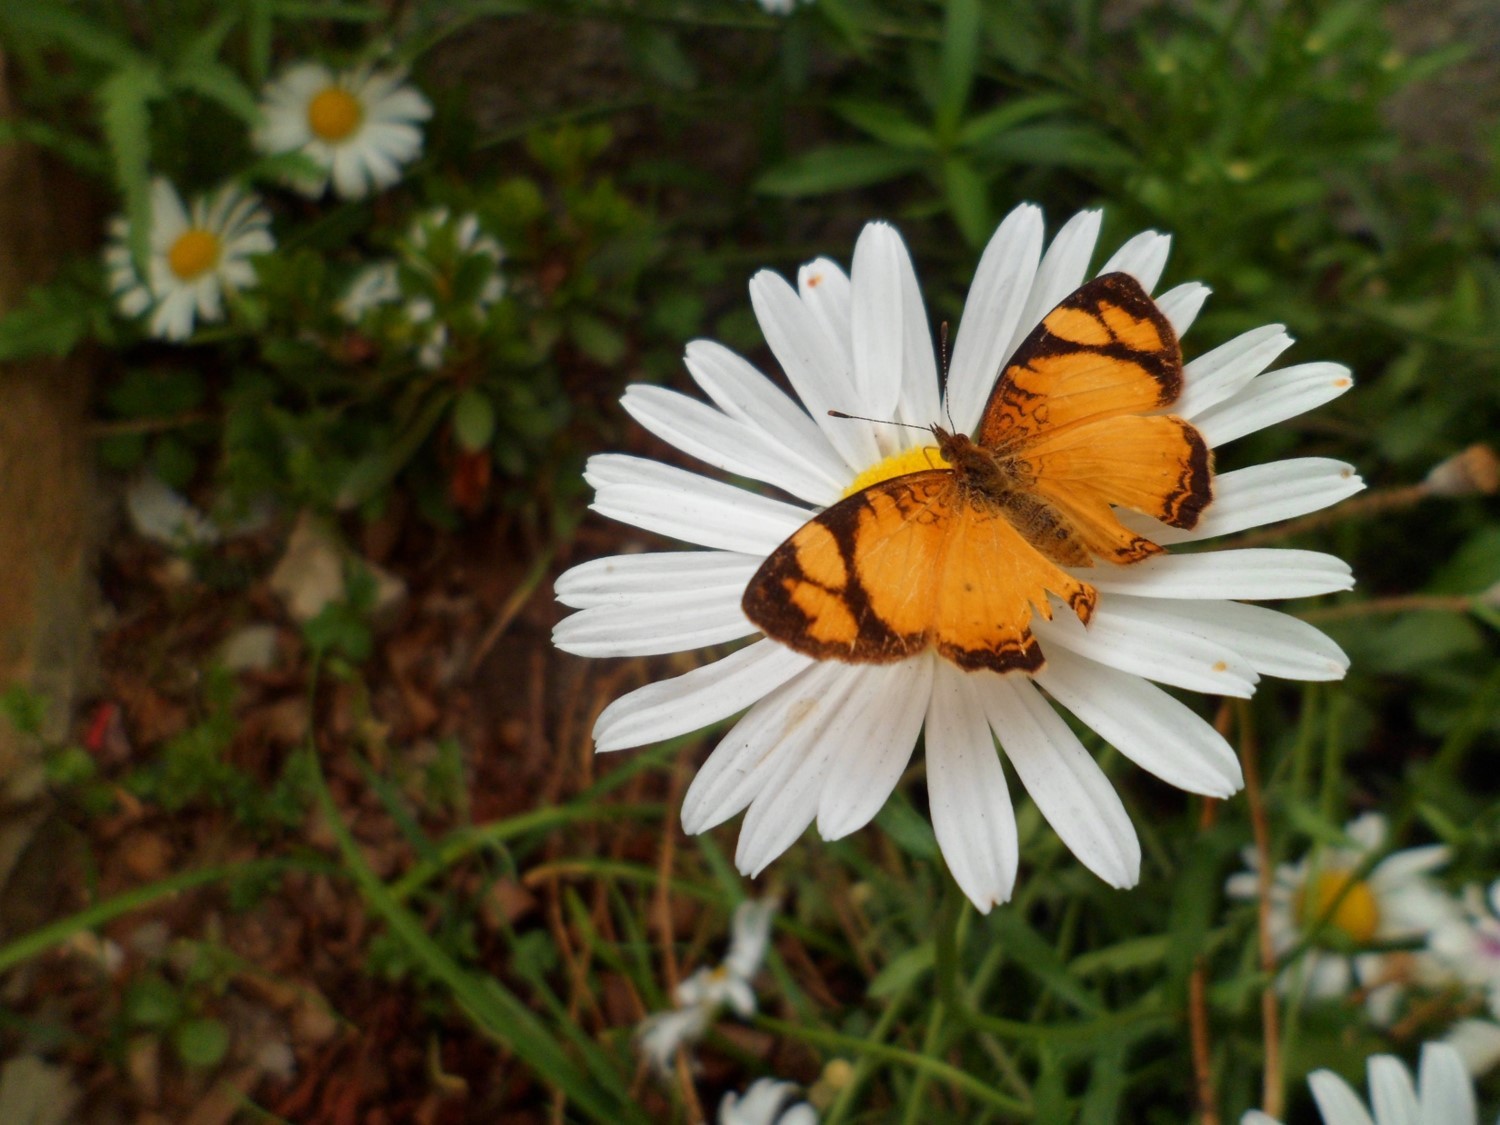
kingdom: Animalia
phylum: Arthropoda
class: Insecta
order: Lepidoptera
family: Nymphalidae
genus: Tegosa
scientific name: Tegosa claudina
